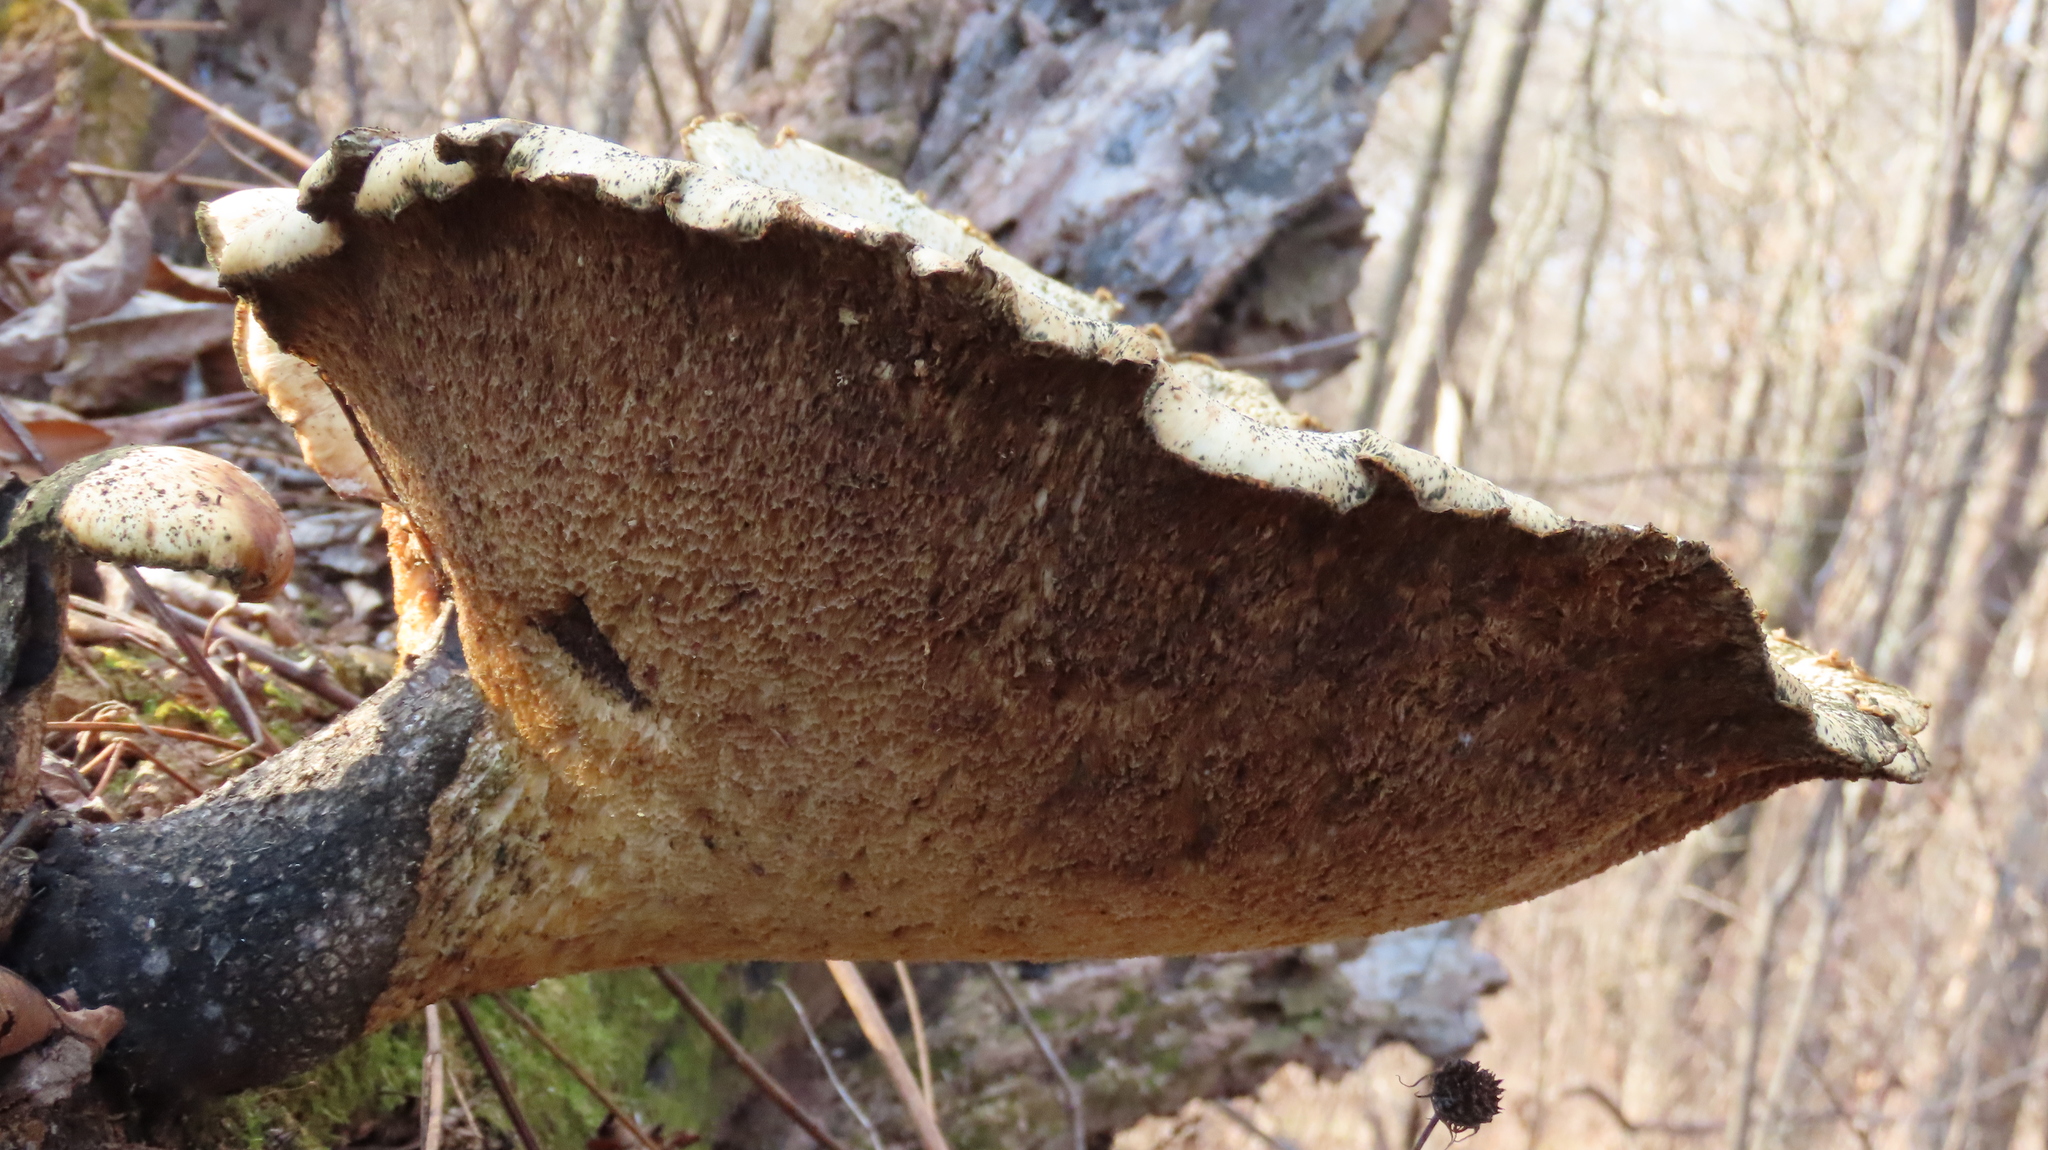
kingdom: Fungi
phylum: Basidiomycota
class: Agaricomycetes
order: Polyporales
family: Polyporaceae
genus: Cerioporus
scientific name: Cerioporus squamosus
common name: Dryad's saddle
